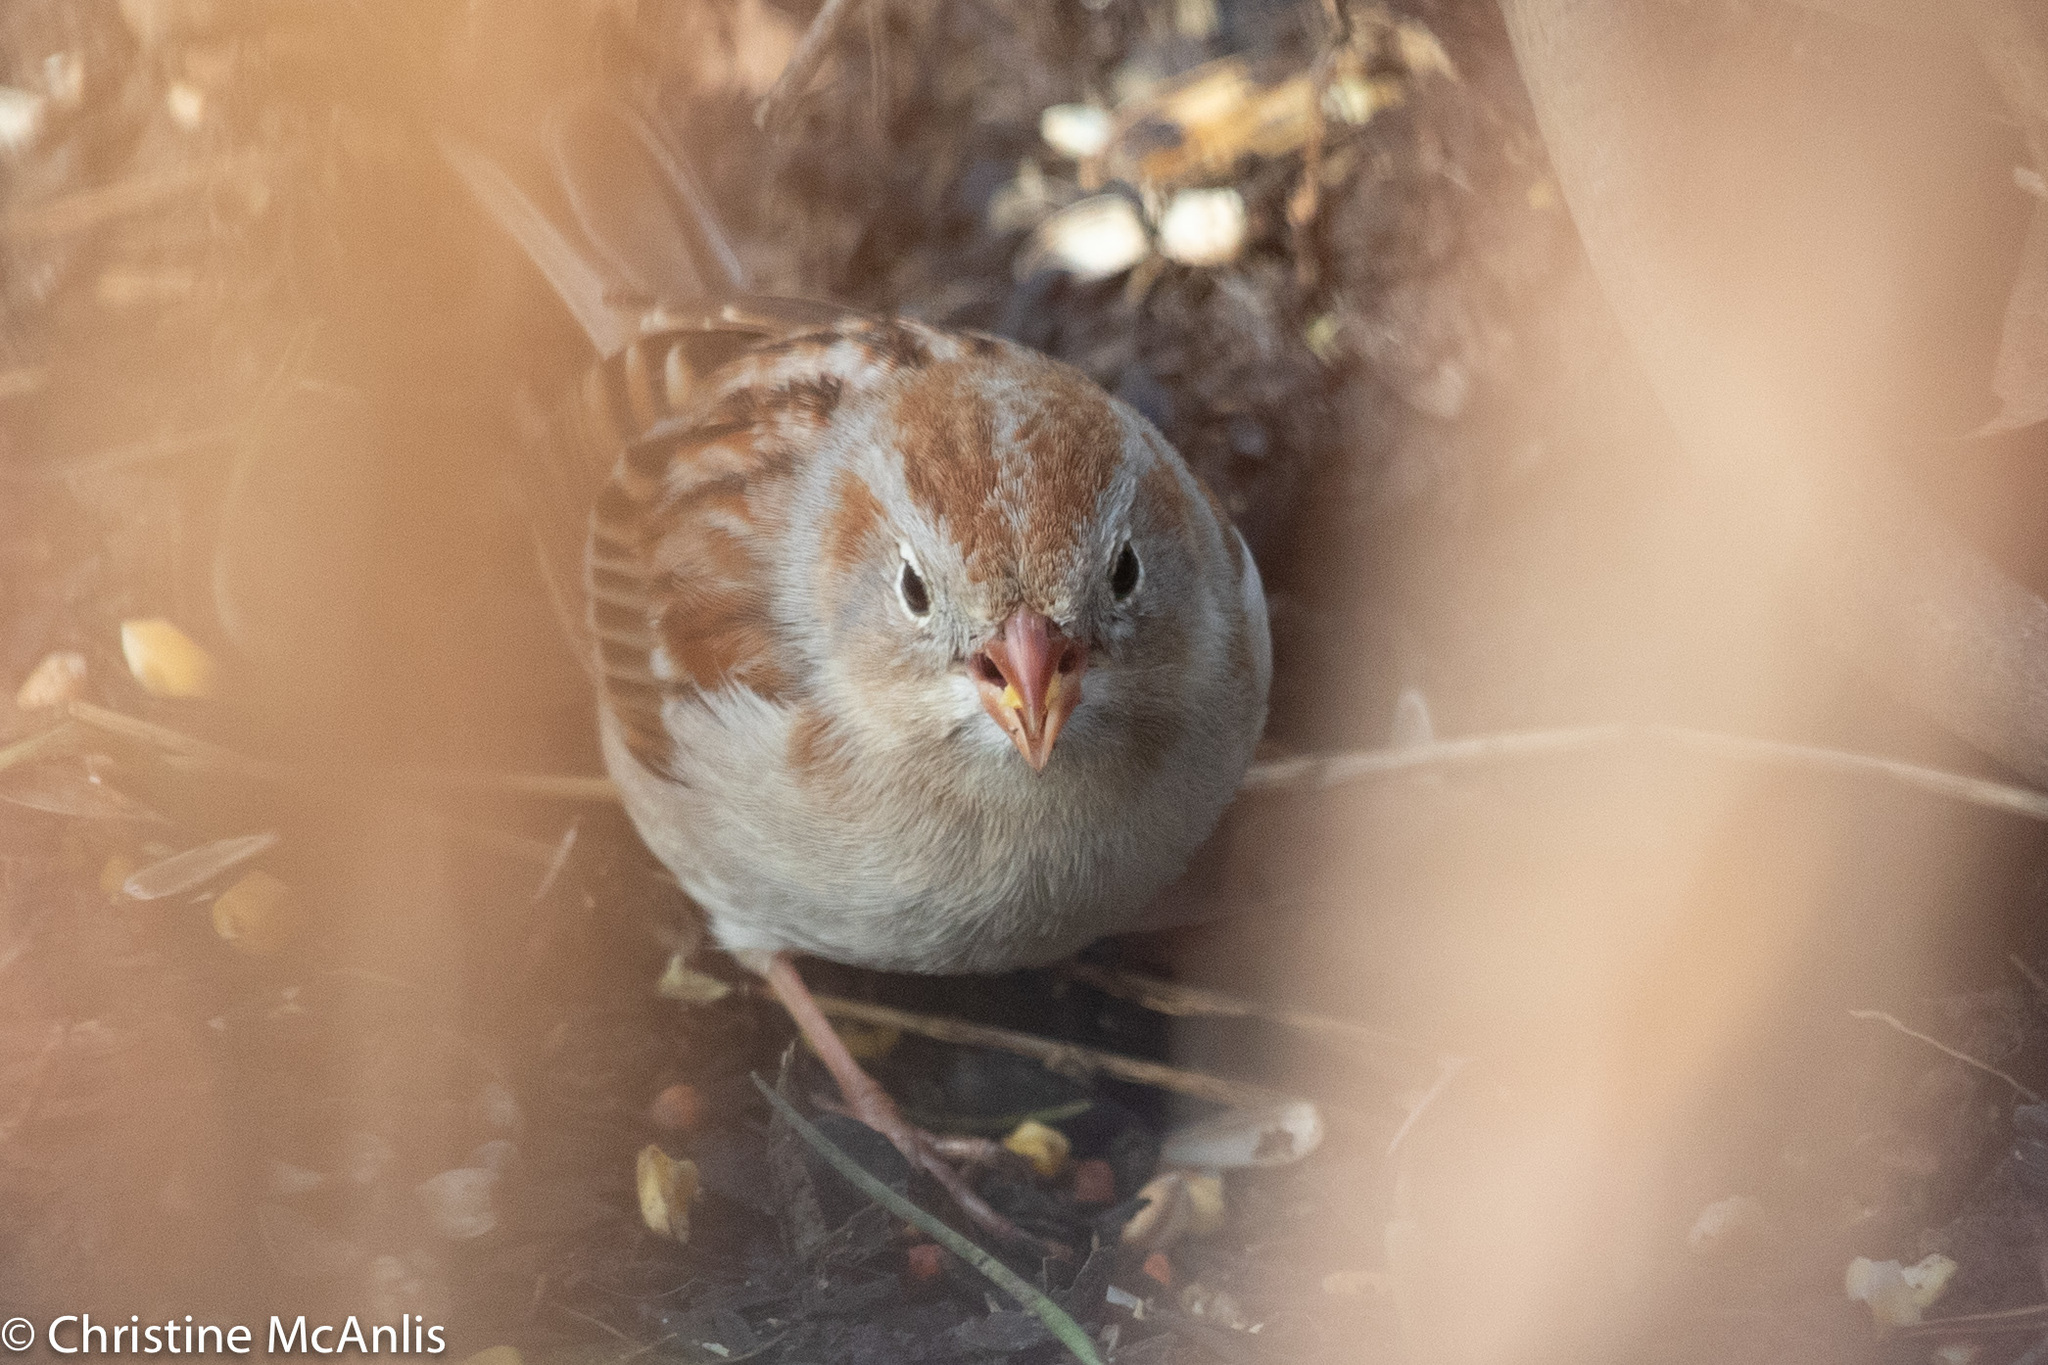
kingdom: Animalia
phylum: Chordata
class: Aves
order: Passeriformes
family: Passerellidae
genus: Spizella
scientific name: Spizella pusilla
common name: Field sparrow
